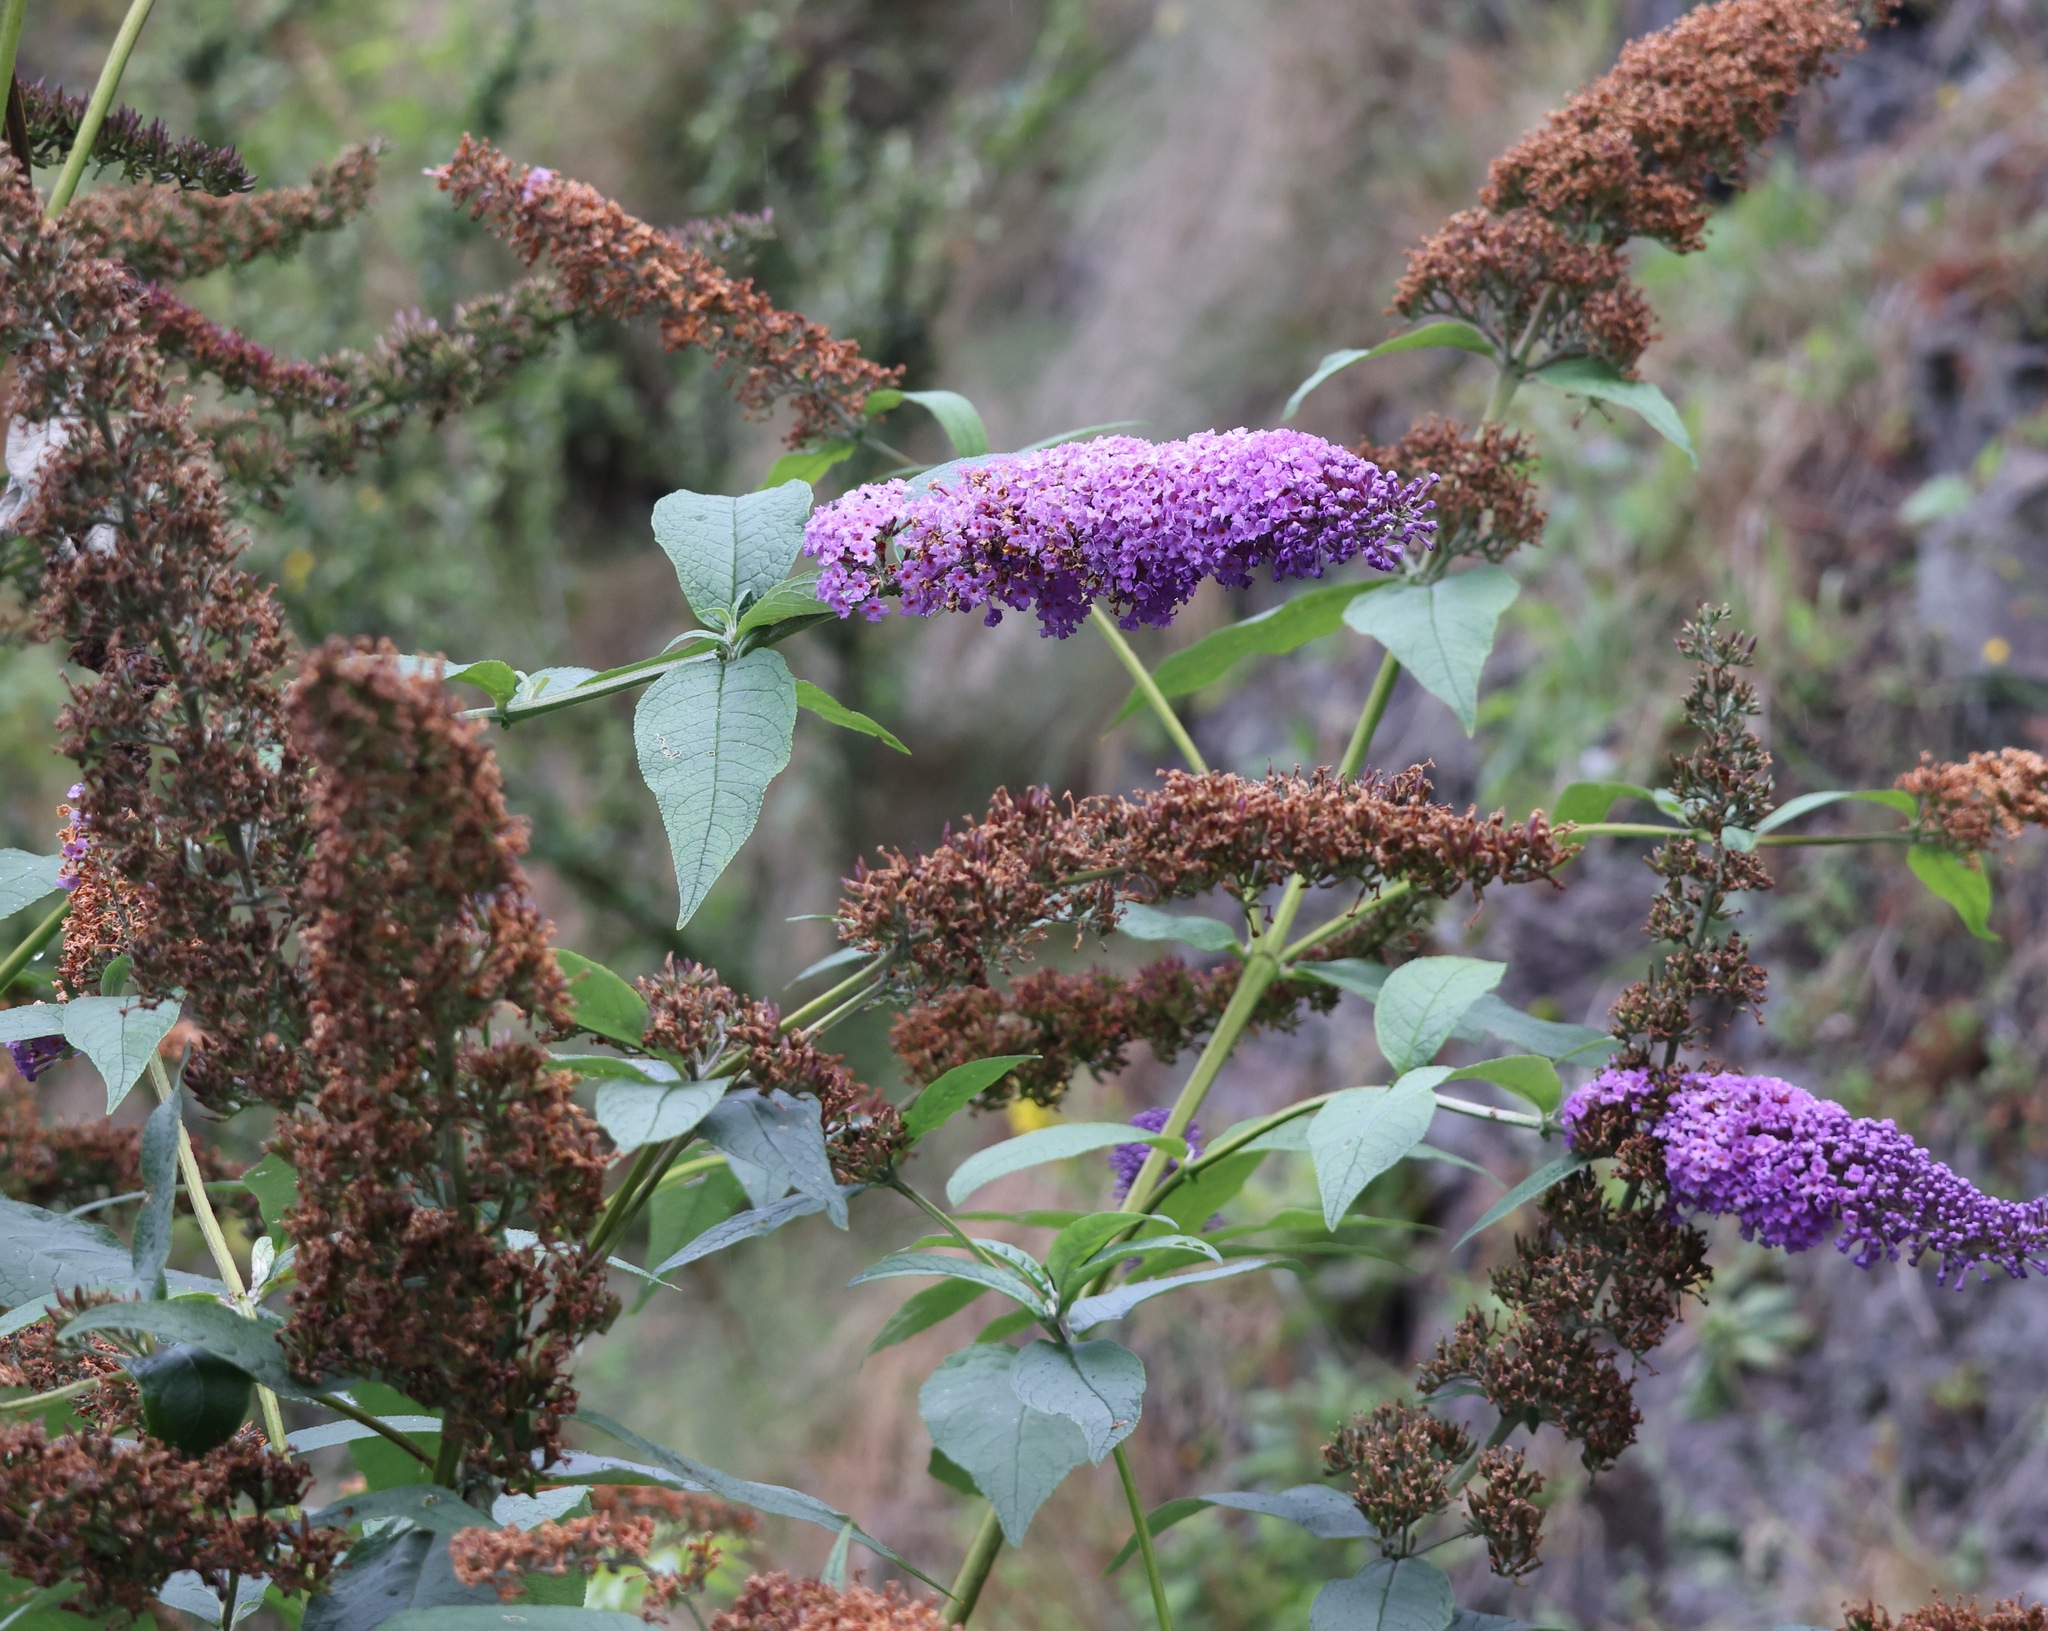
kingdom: Plantae
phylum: Tracheophyta
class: Magnoliopsida
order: Lamiales
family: Scrophulariaceae
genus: Buddleja
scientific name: Buddleja davidii
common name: Butterfly-bush
